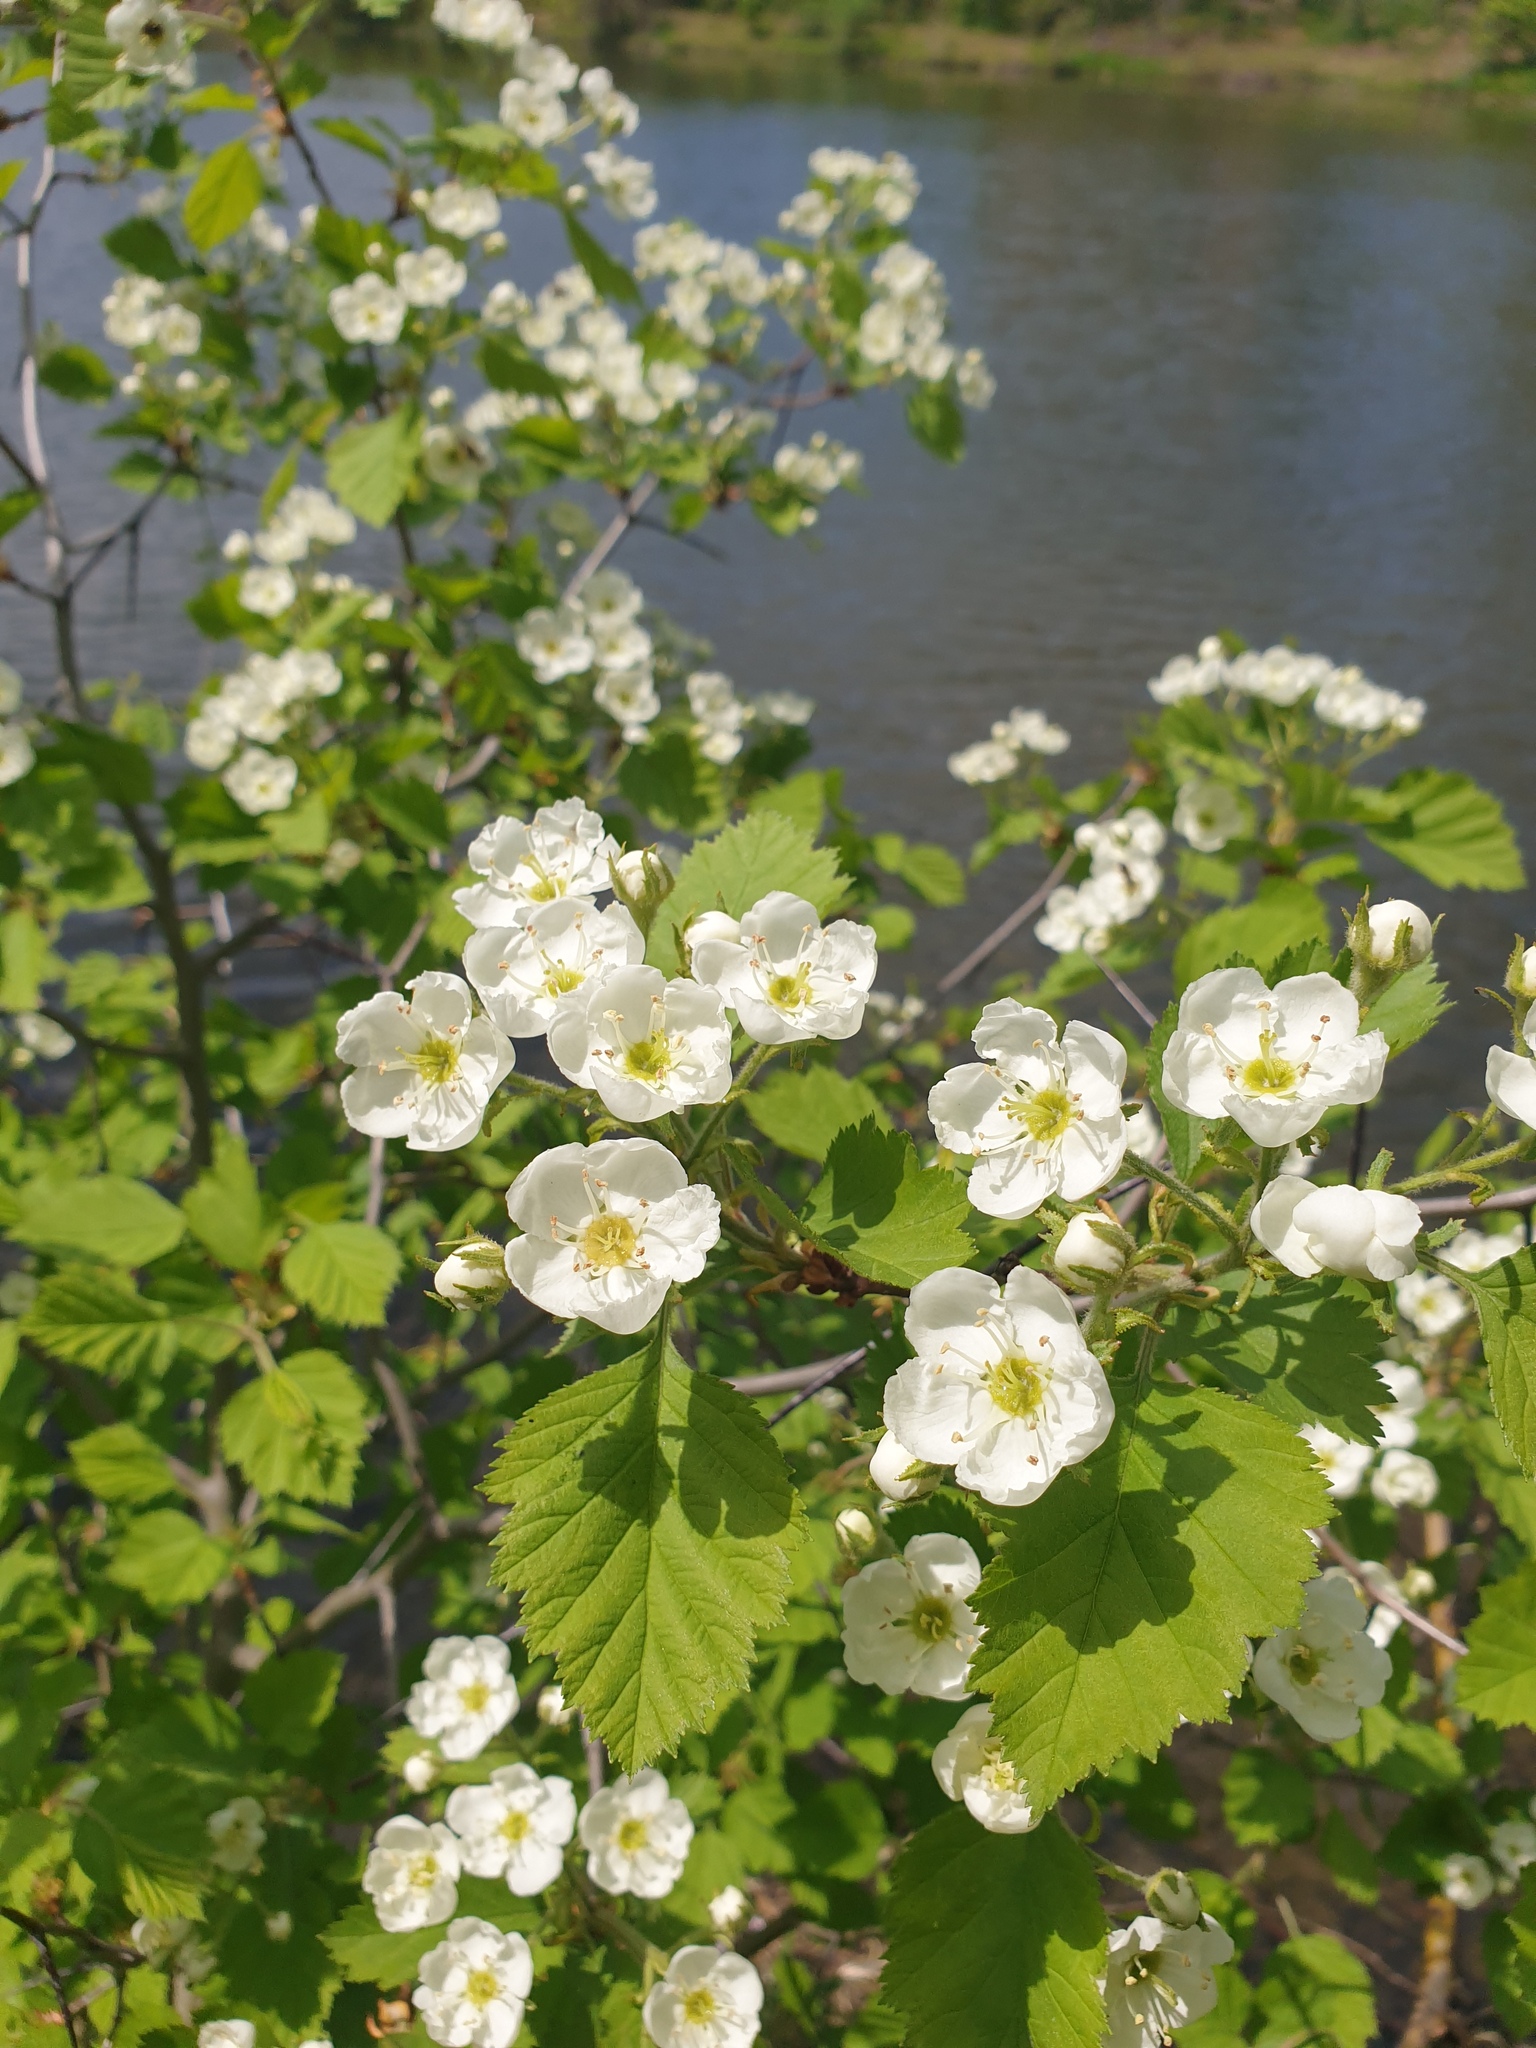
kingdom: Plantae
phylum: Tracheophyta
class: Magnoliopsida
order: Rosales
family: Rosaceae
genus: Crataegus
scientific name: Crataegus submollis
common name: Hairy cockspurthorn
